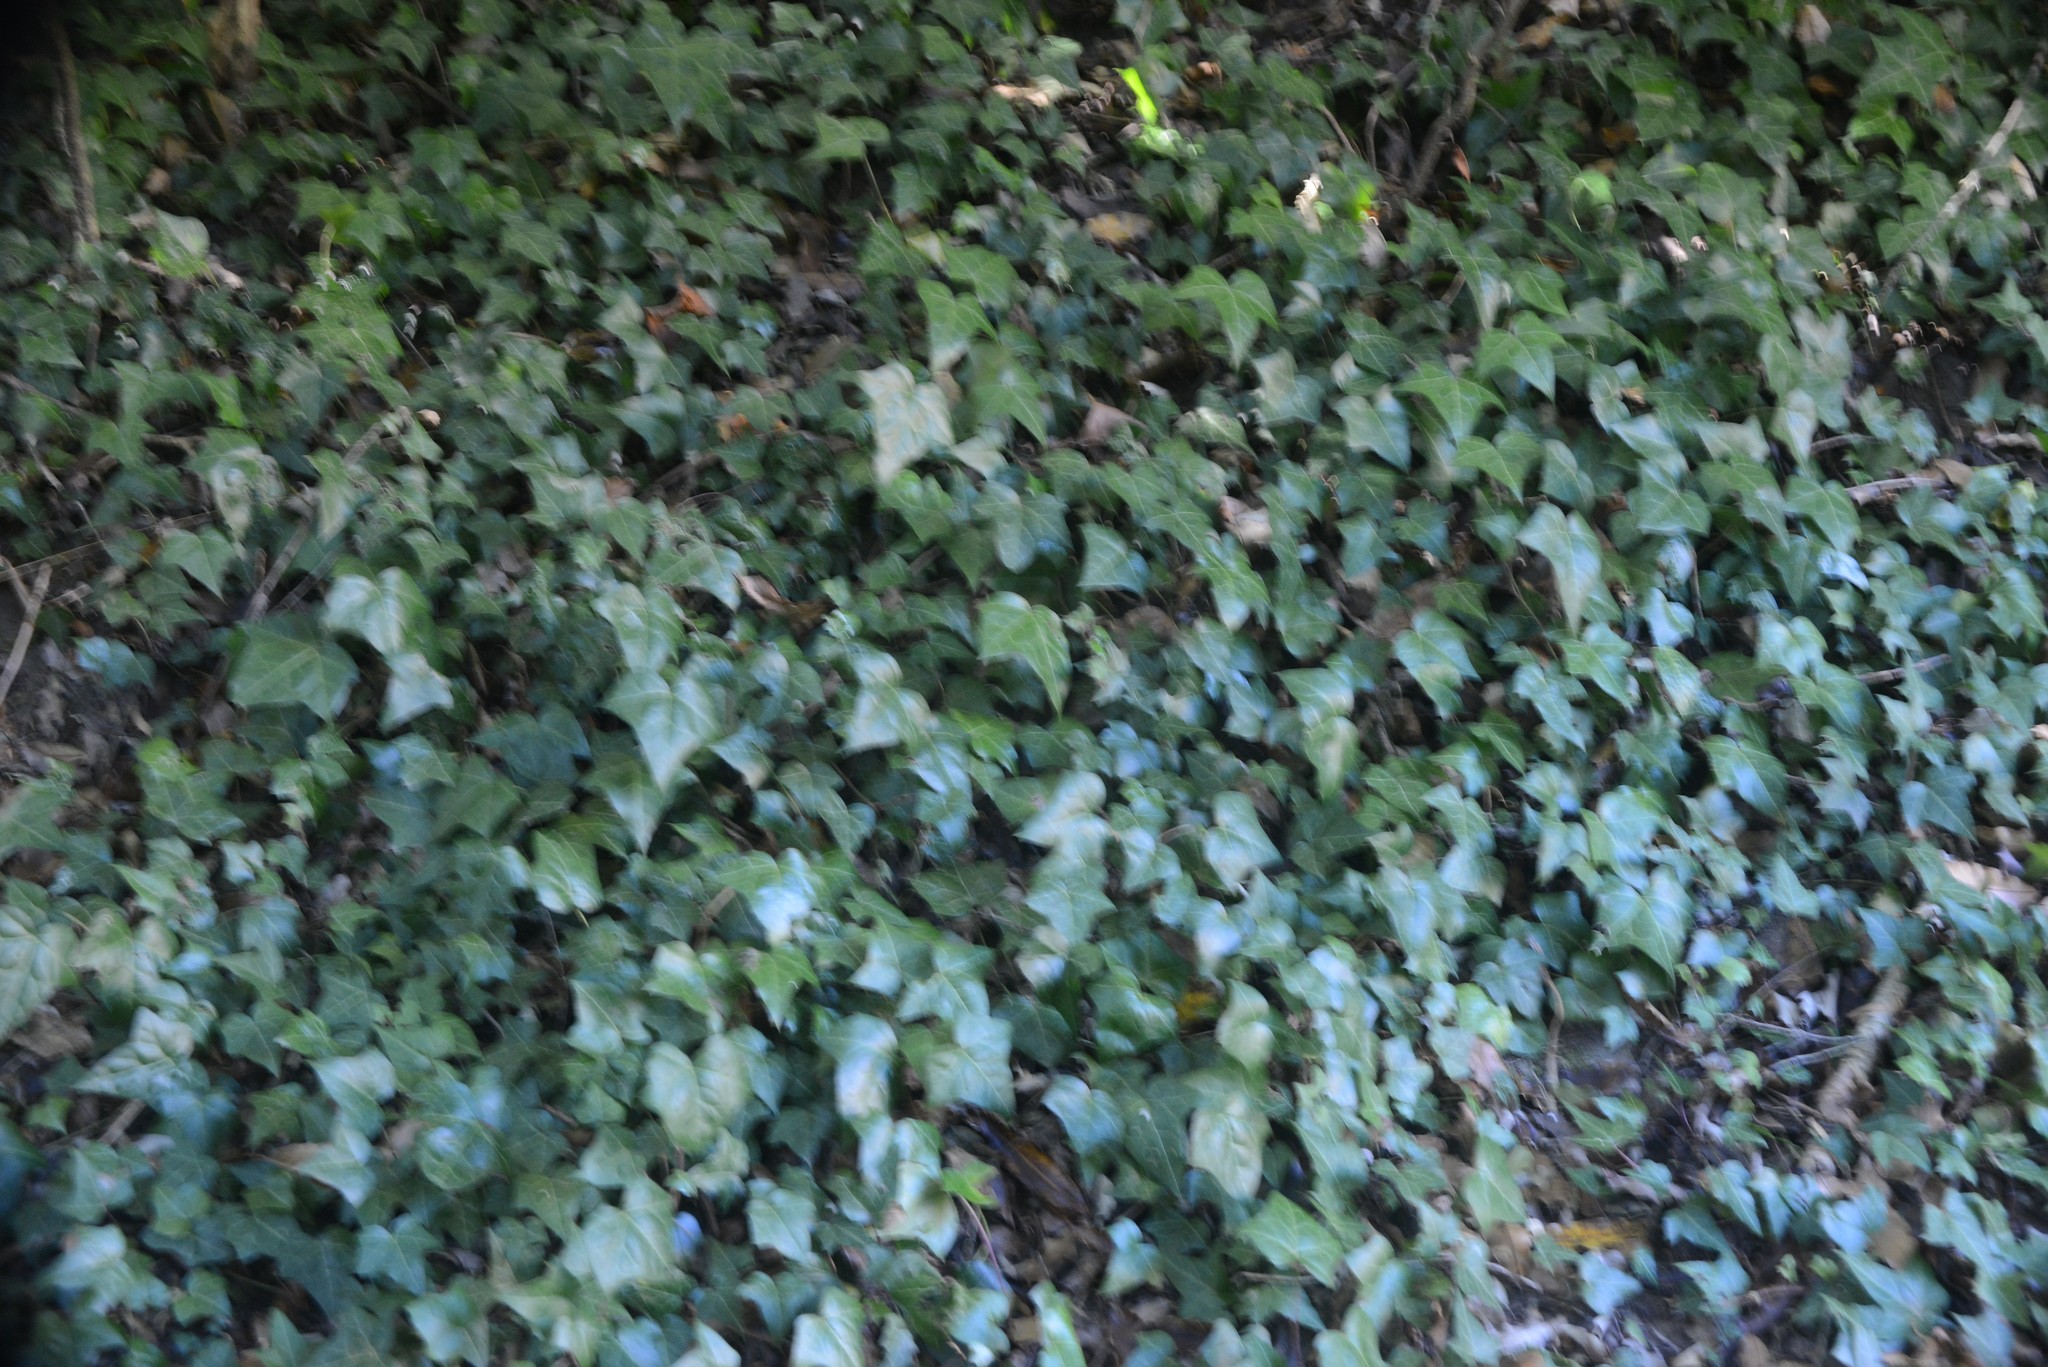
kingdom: Plantae
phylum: Tracheophyta
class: Magnoliopsida
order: Apiales
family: Araliaceae
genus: Hedera
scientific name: Hedera helix
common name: Ivy
